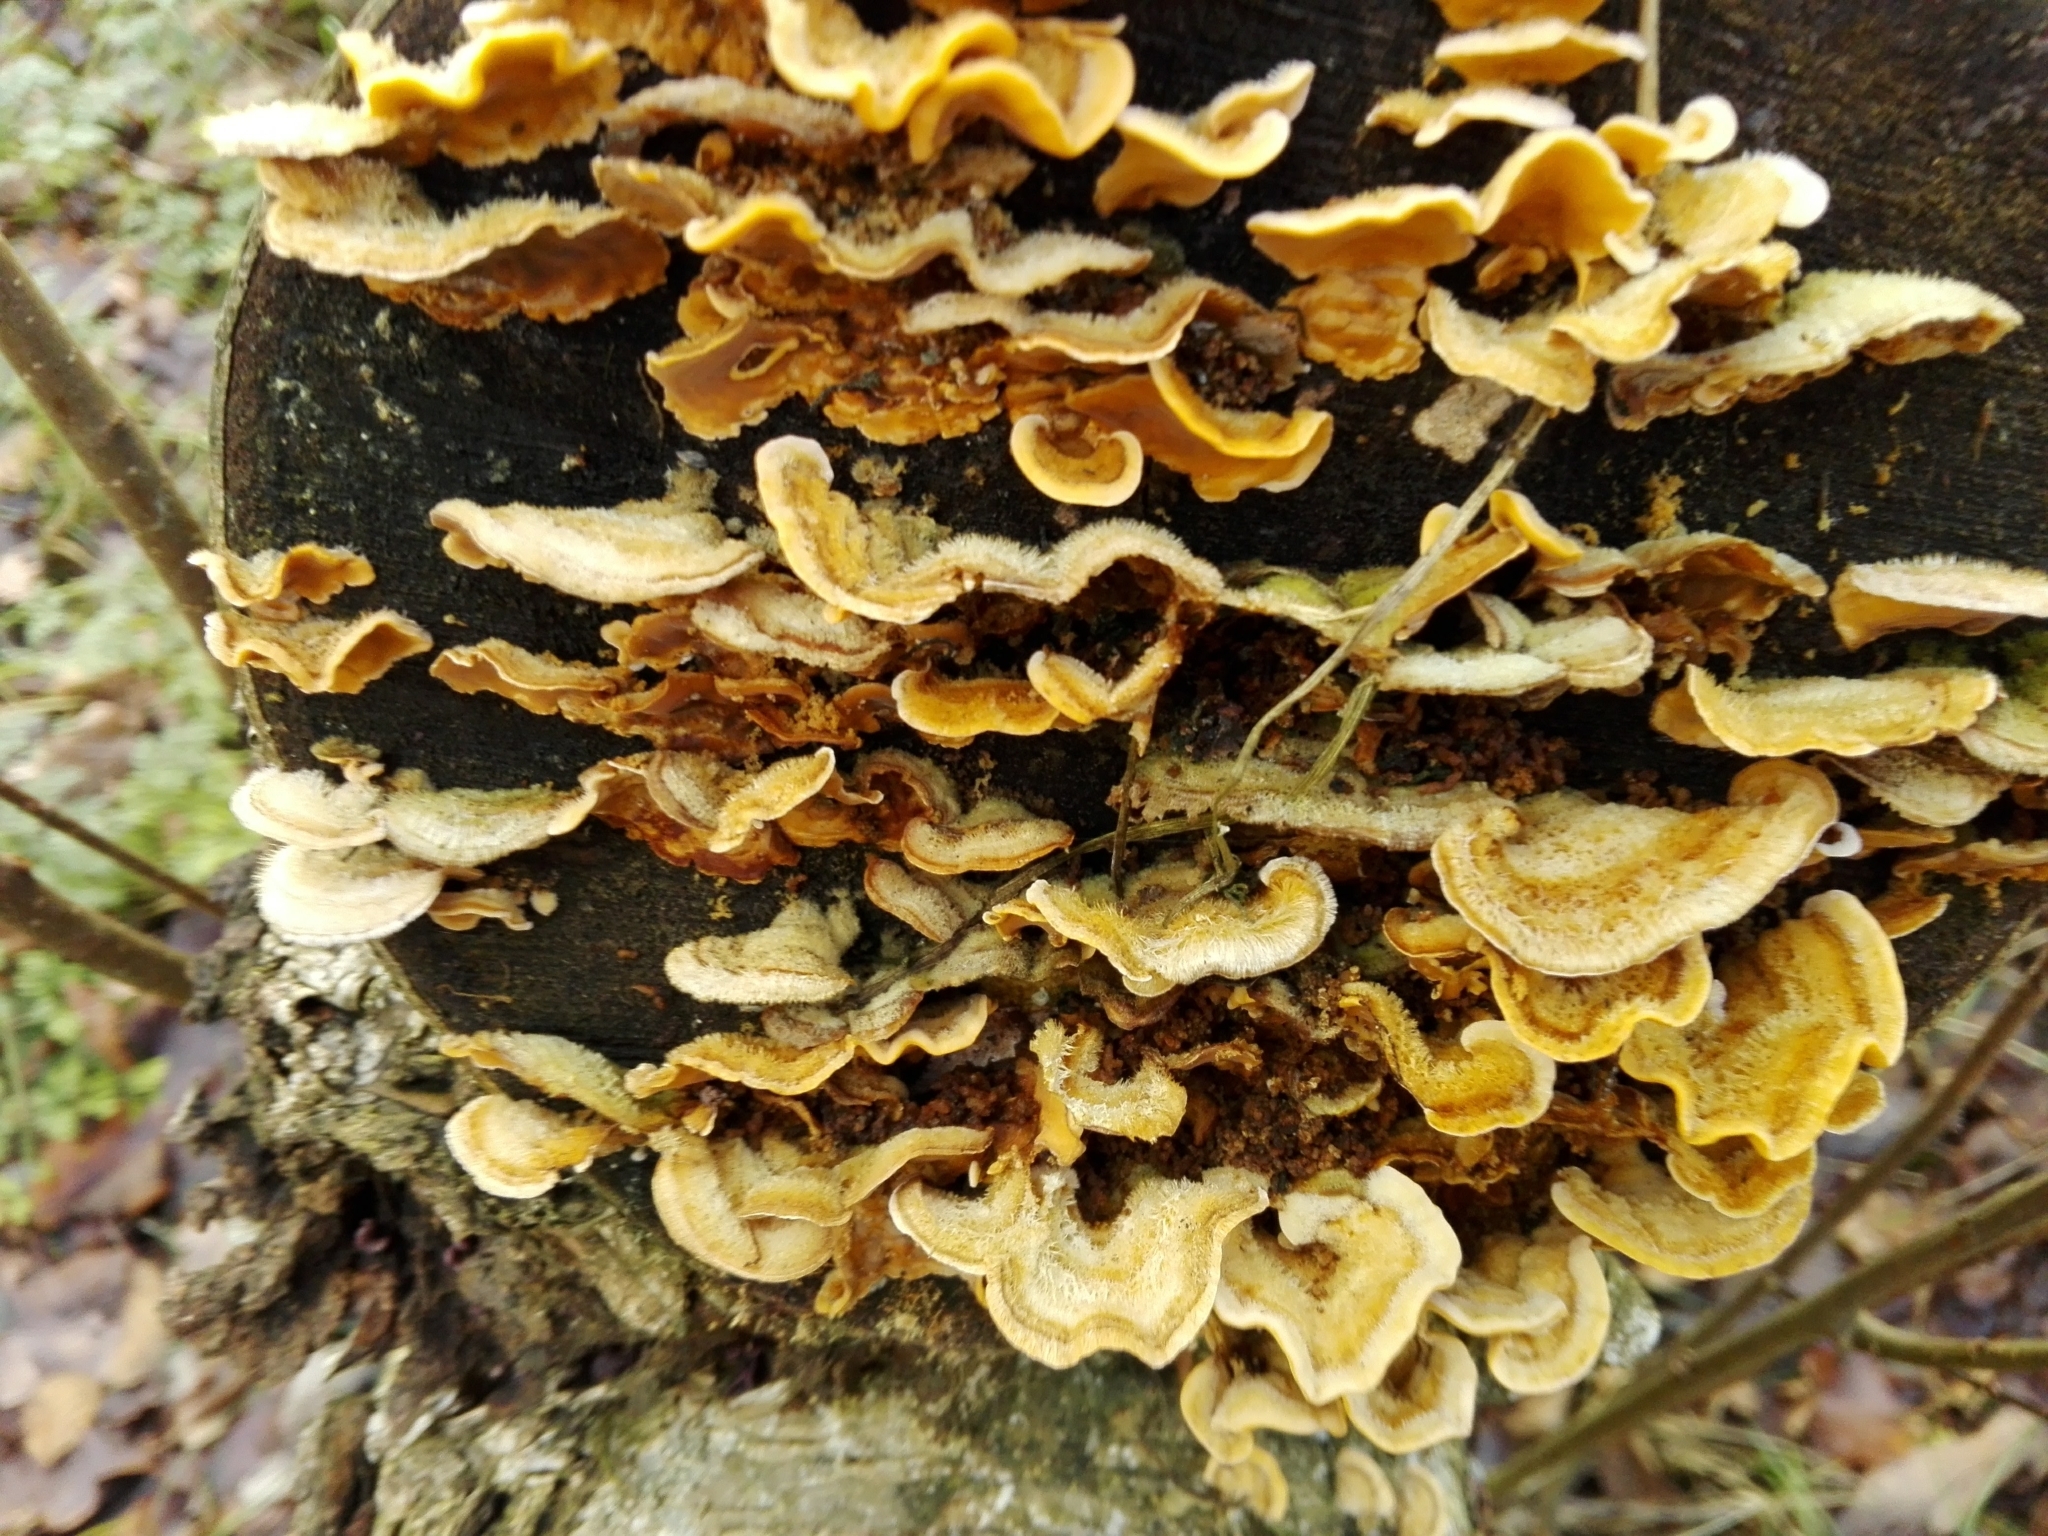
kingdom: Fungi
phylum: Basidiomycota
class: Agaricomycetes
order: Russulales
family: Stereaceae
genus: Stereum
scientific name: Stereum hirsutum
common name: Hairy curtain crust
